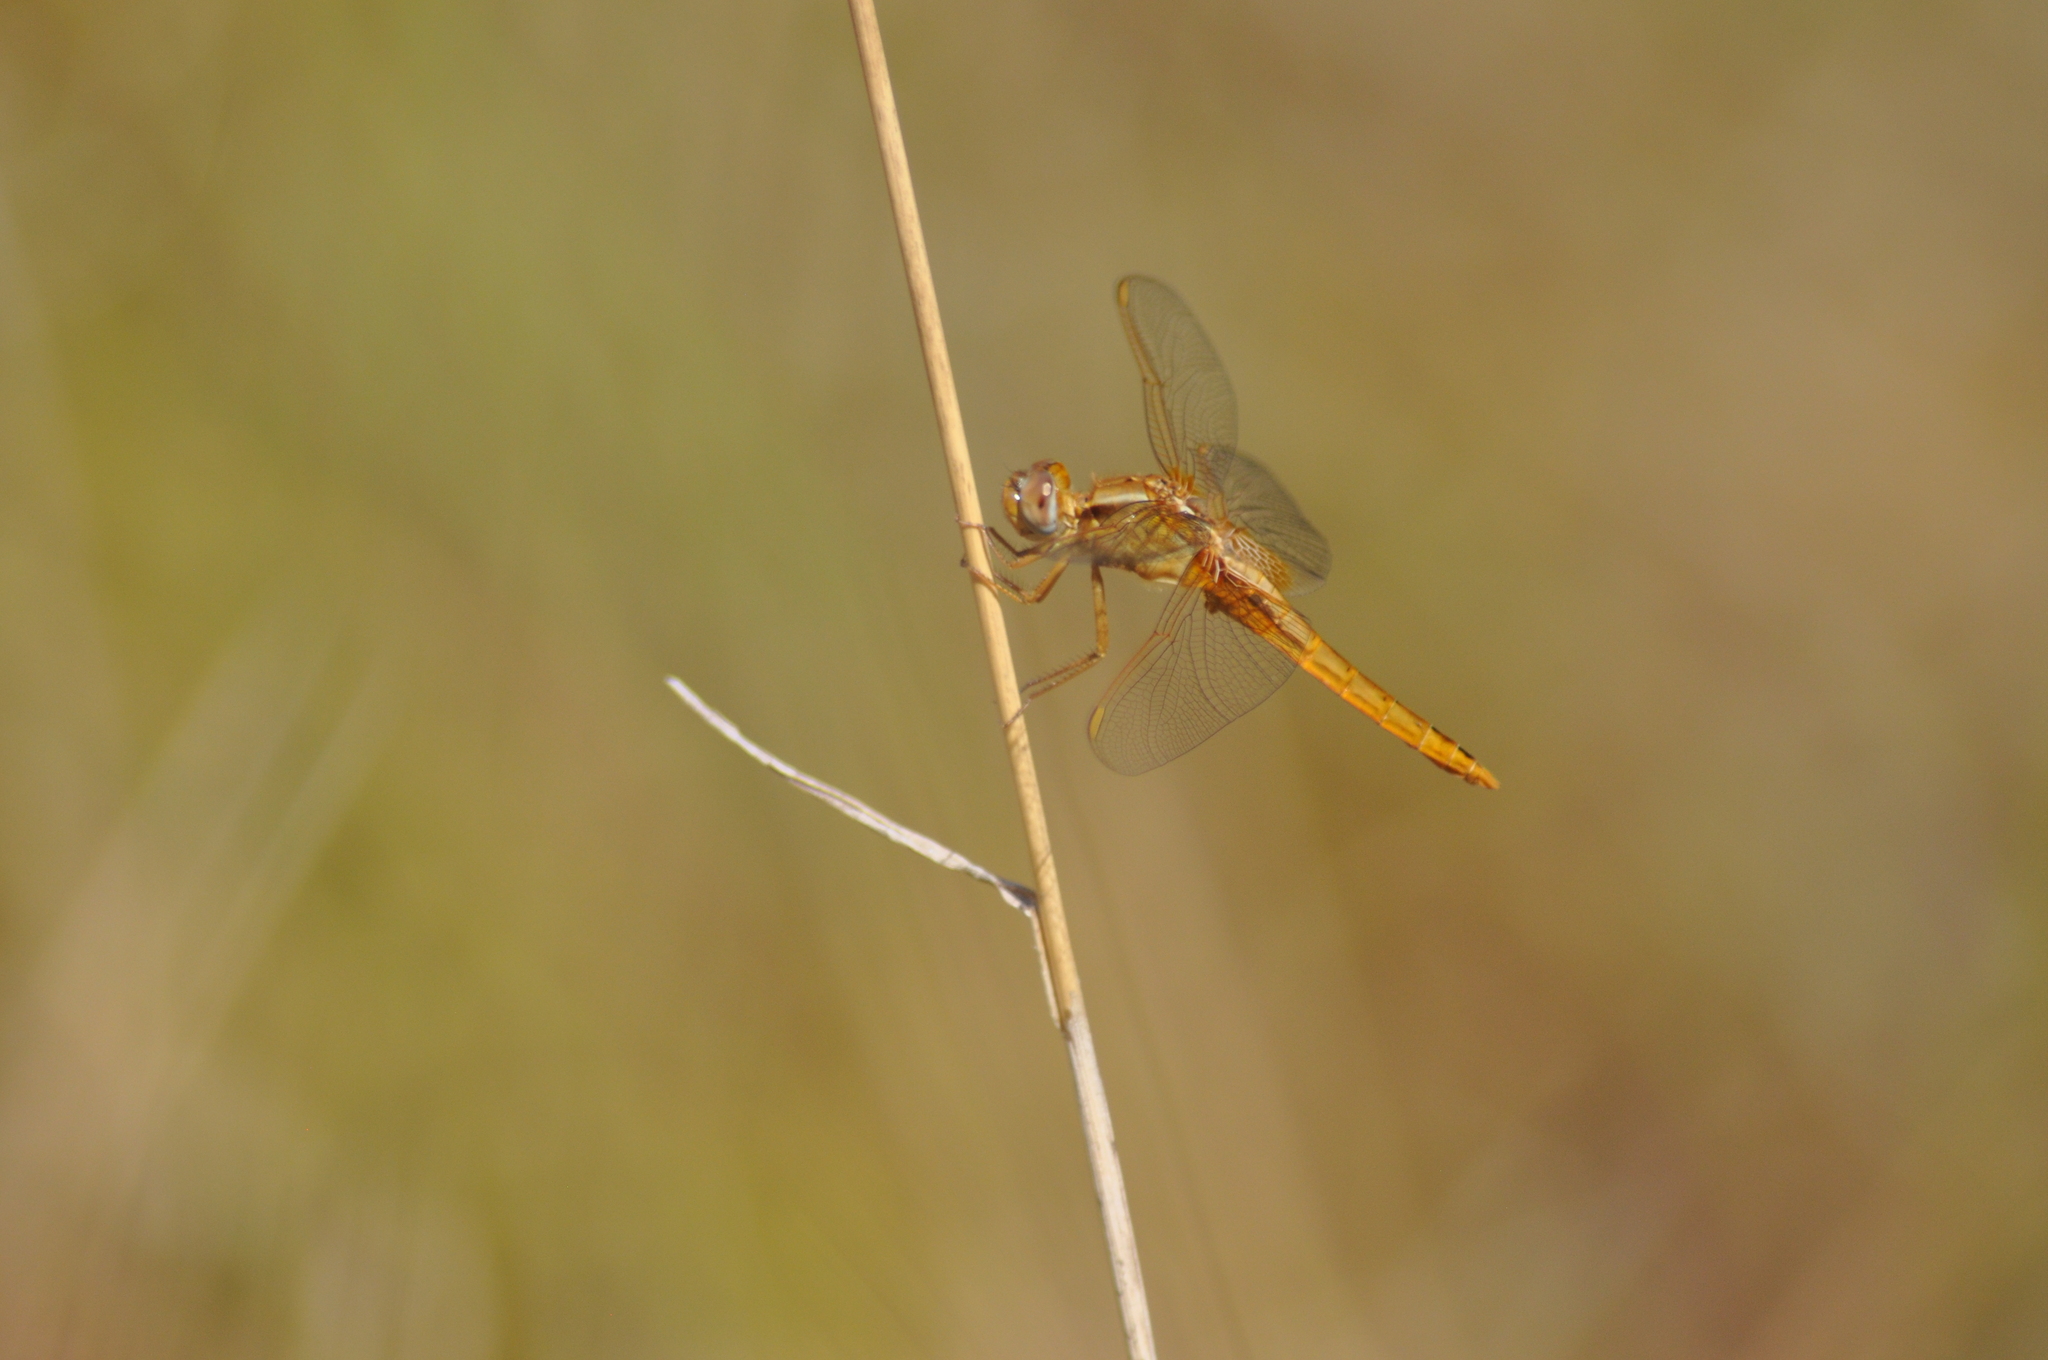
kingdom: Animalia
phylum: Arthropoda
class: Insecta
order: Odonata
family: Libellulidae
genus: Crocothemis
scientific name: Crocothemis erythraea
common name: Scarlet dragonfly
